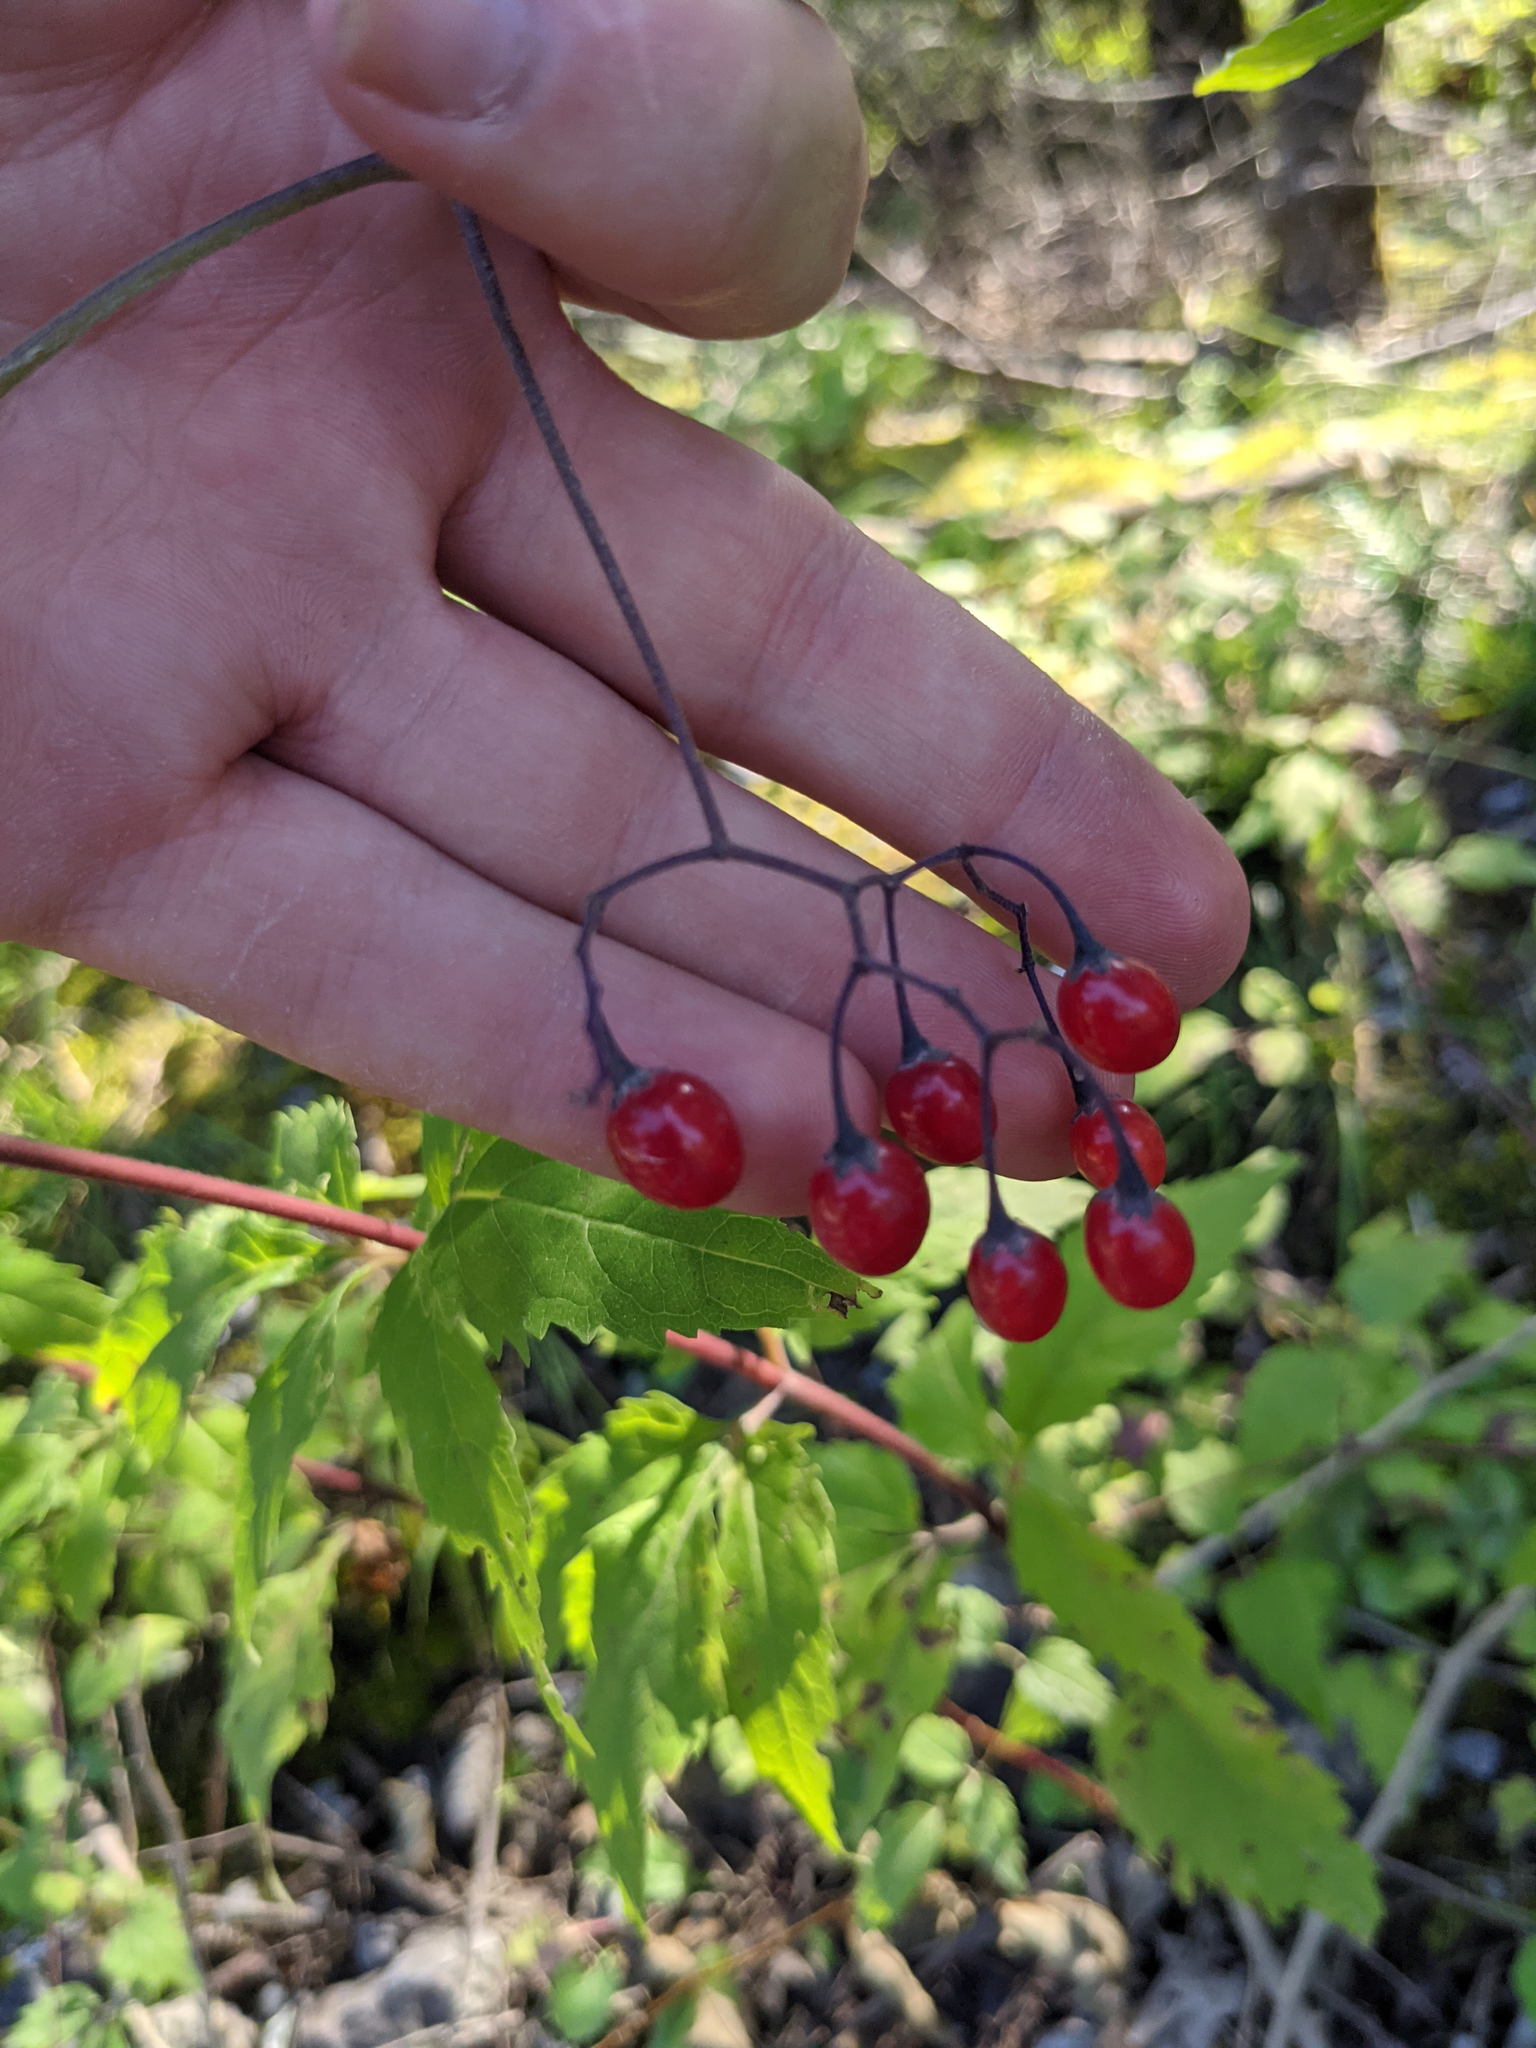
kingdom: Plantae
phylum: Tracheophyta
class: Magnoliopsida
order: Solanales
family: Solanaceae
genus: Solanum
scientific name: Solanum dulcamara
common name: Climbing nightshade
